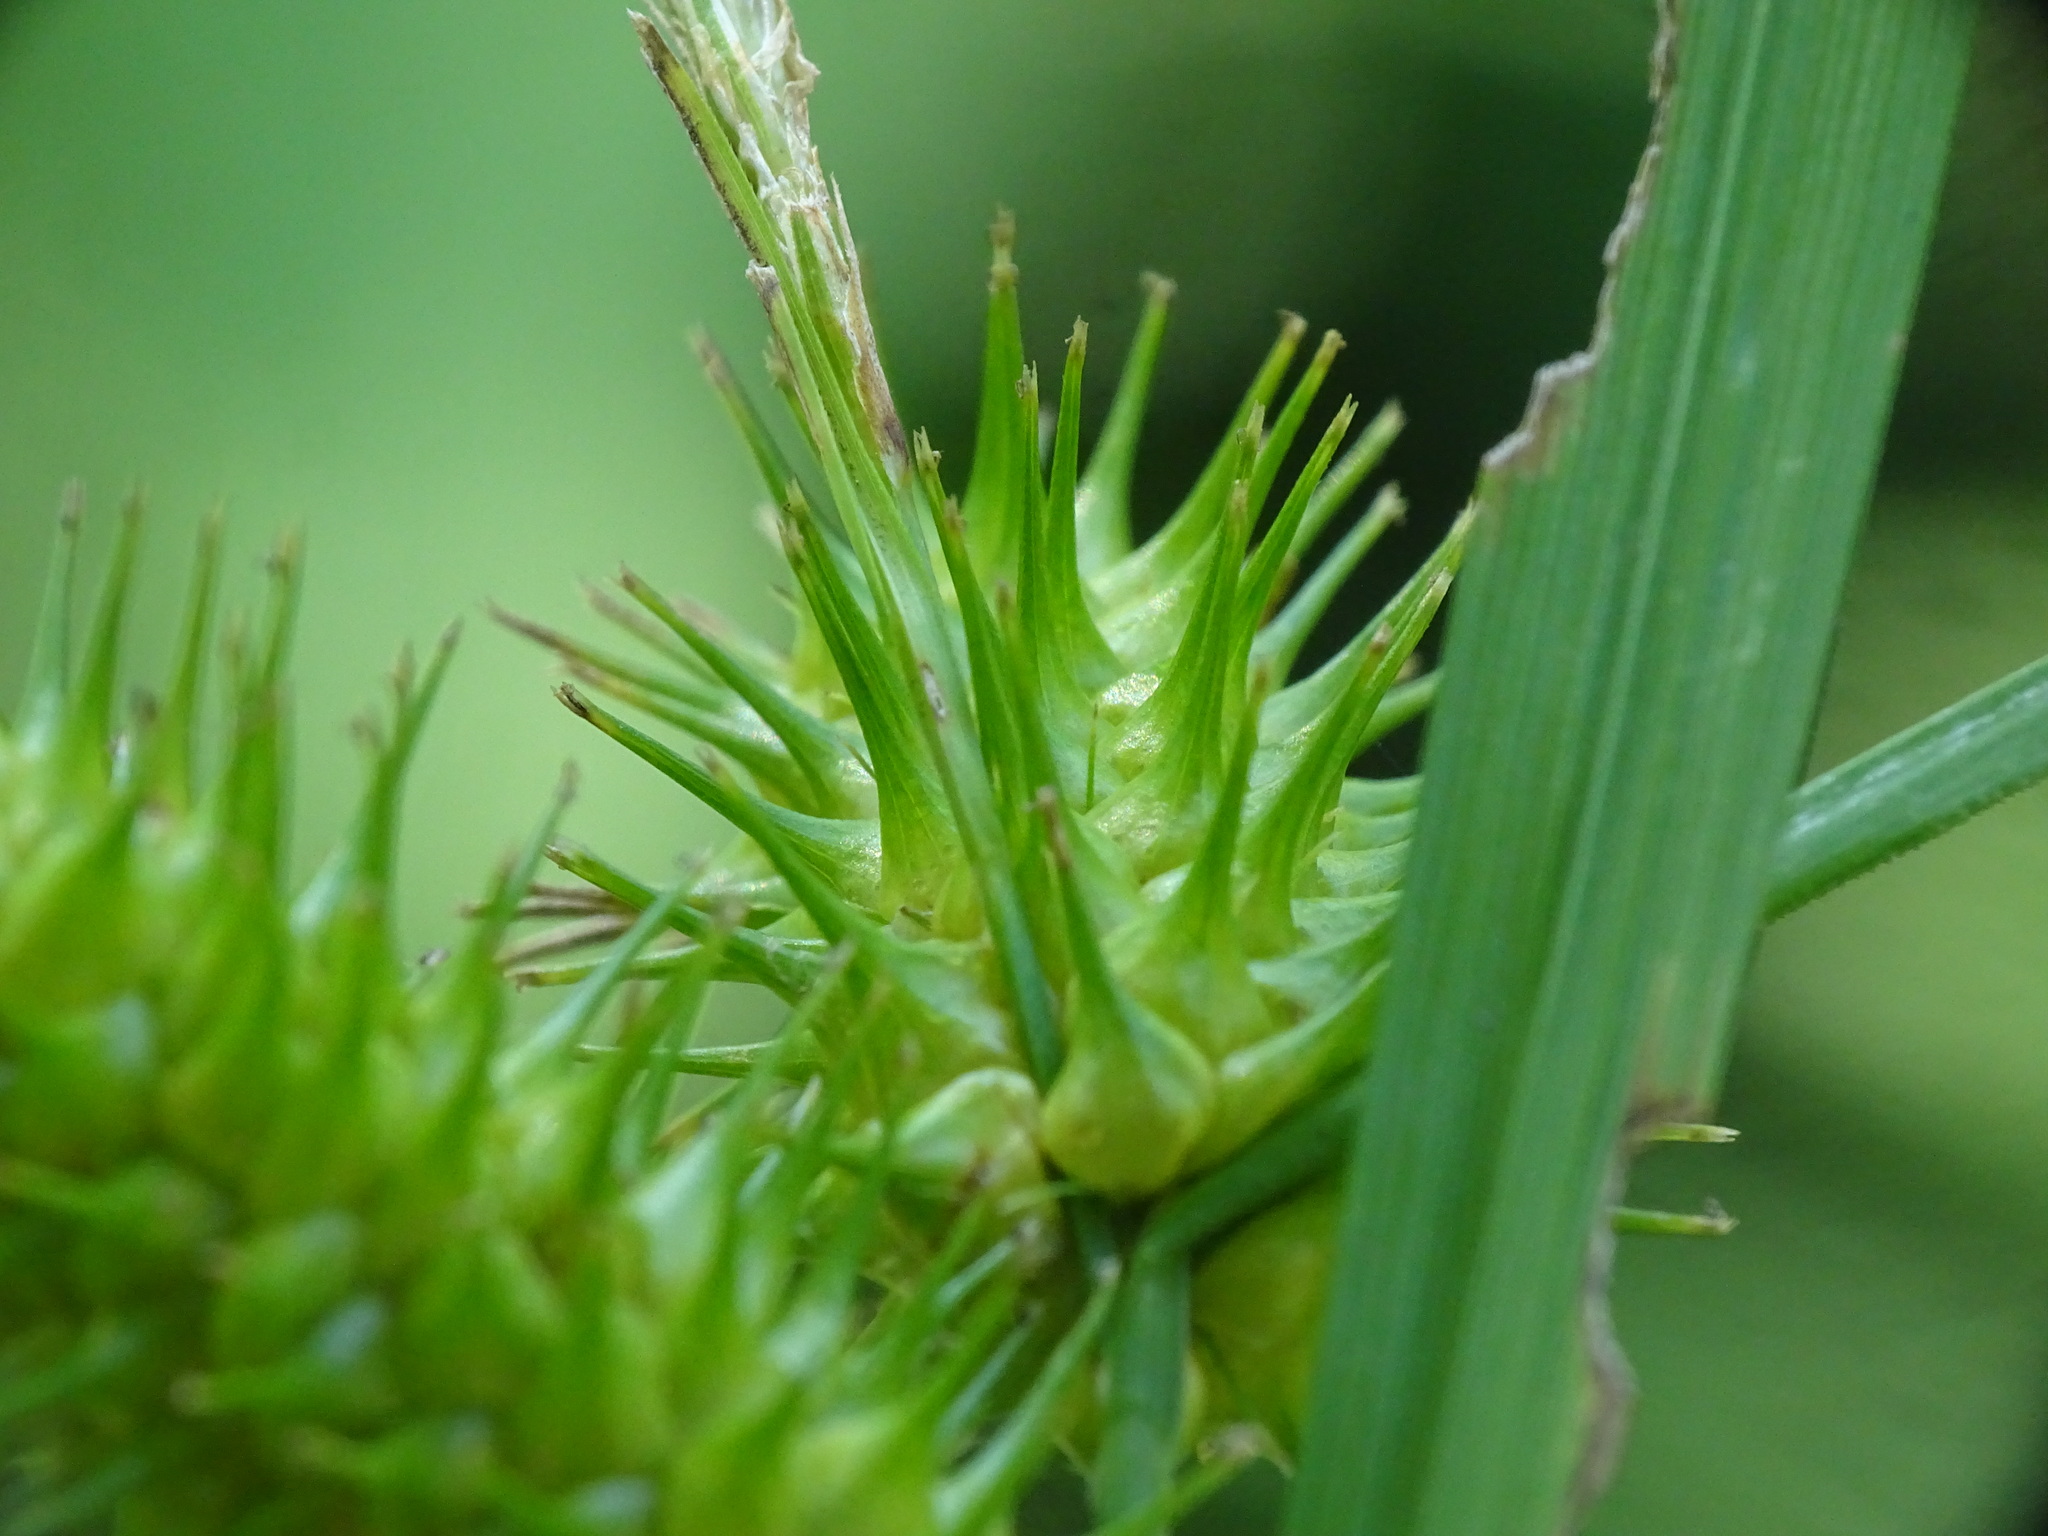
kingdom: Plantae
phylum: Tracheophyta
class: Liliopsida
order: Poales
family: Cyperaceae
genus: Carex
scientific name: Carex lurida
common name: Sallow sedge
